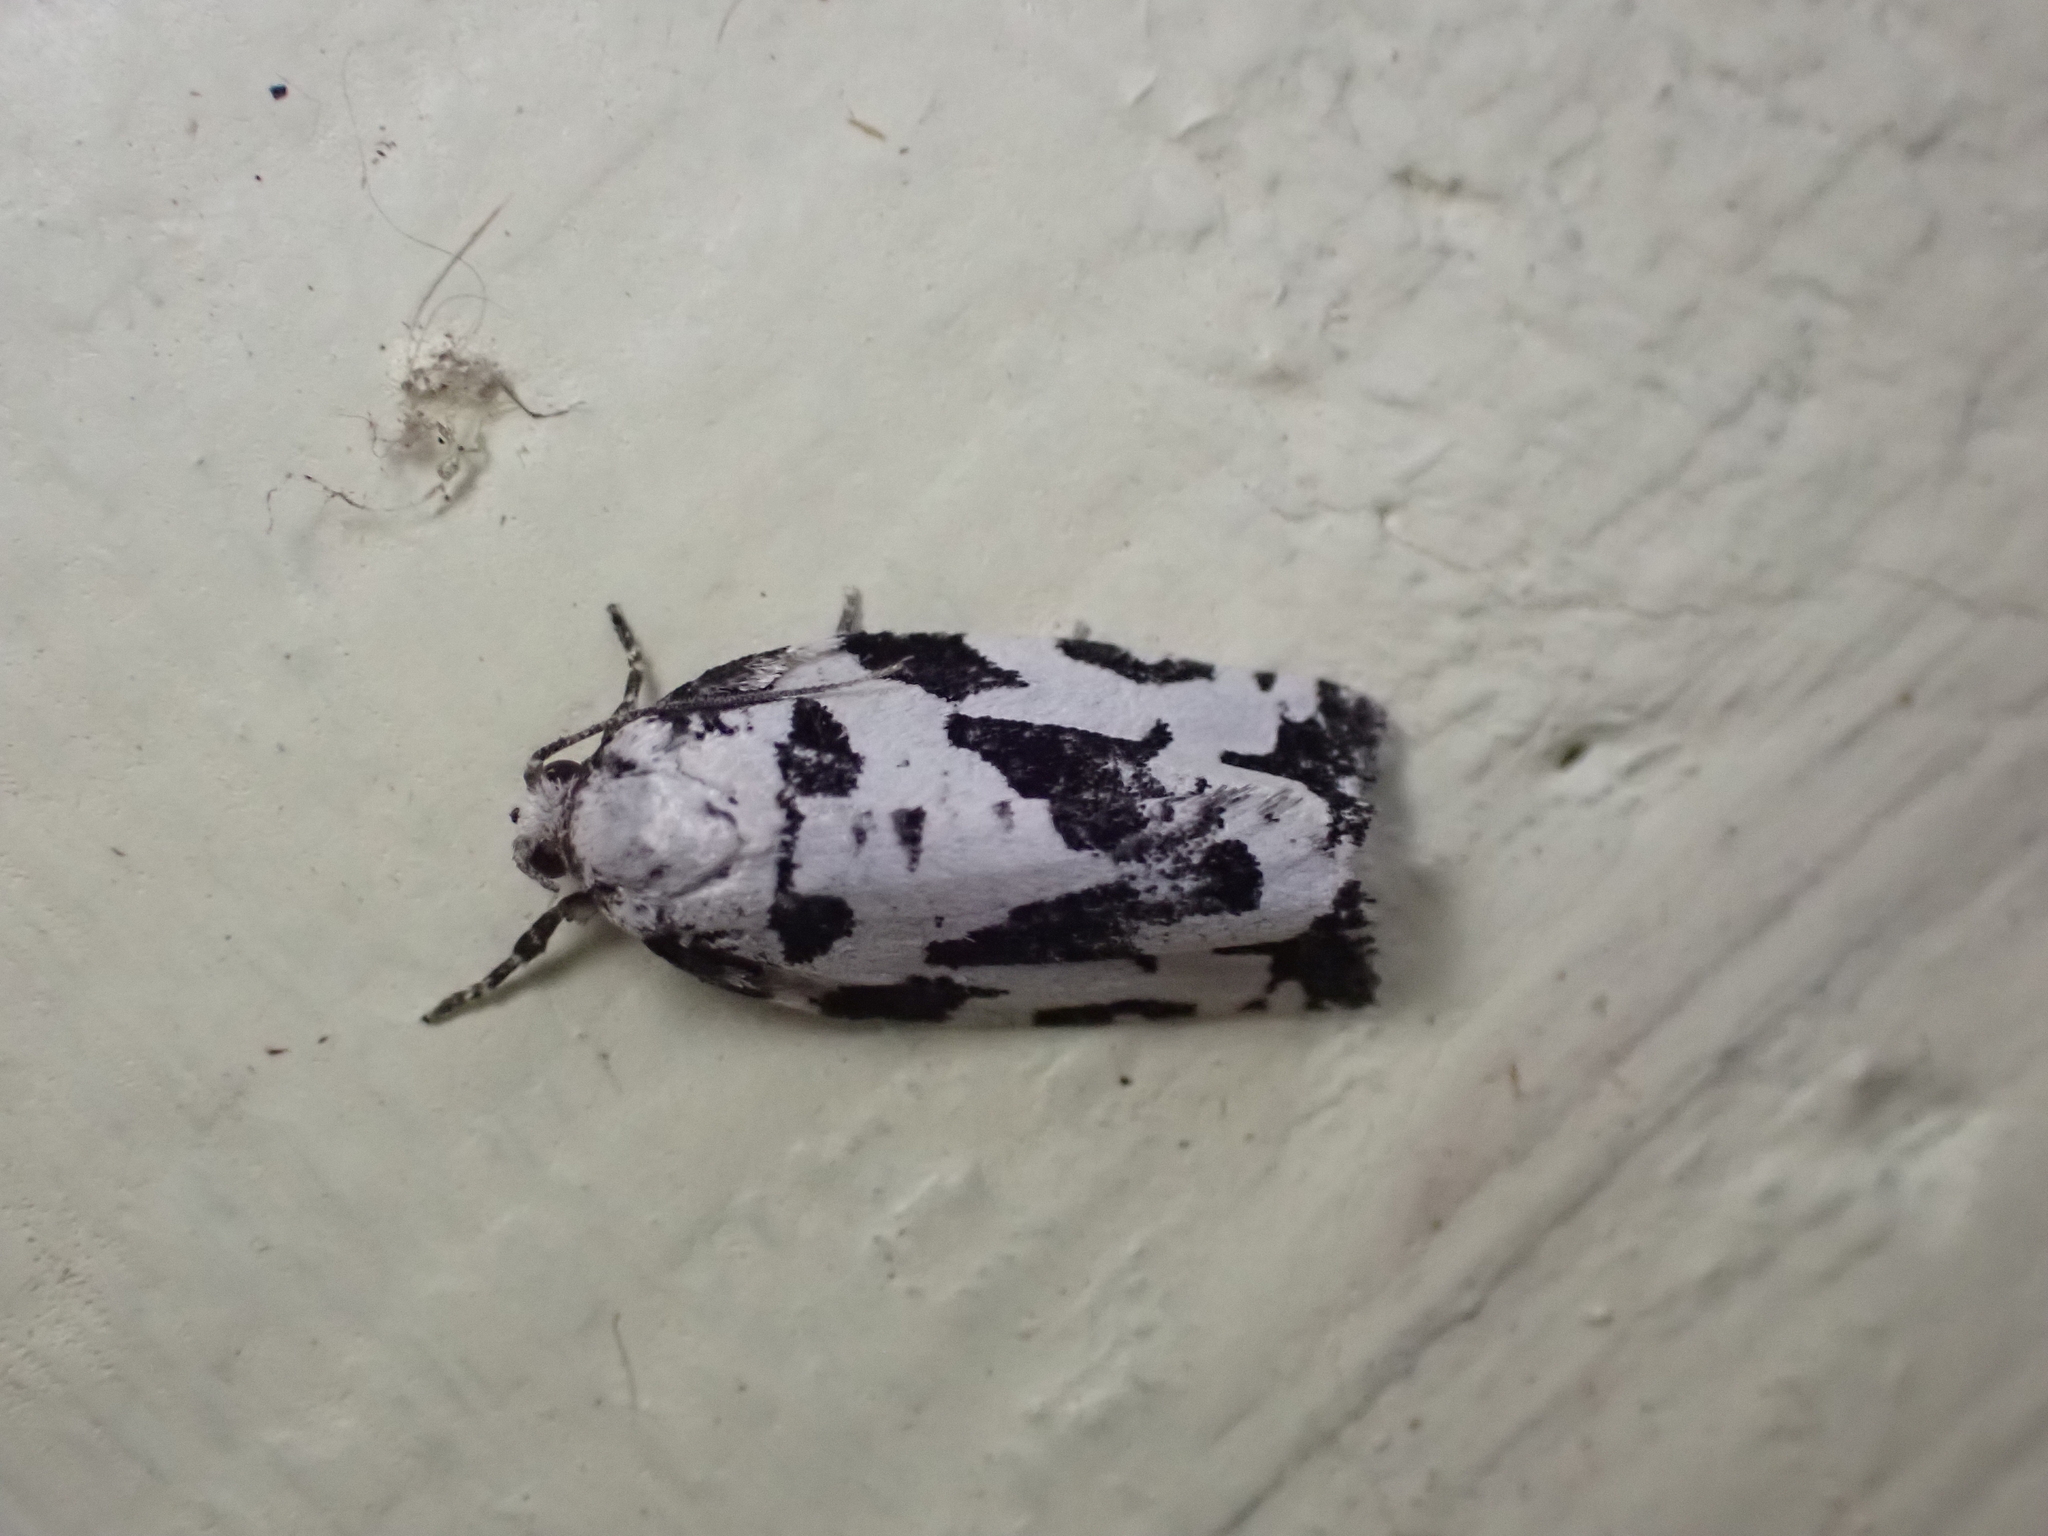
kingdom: Animalia
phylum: Arthropoda
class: Insecta
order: Lepidoptera
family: Tortricidae
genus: Archips
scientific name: Archips dissitana
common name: Boldly-marked archips moth
